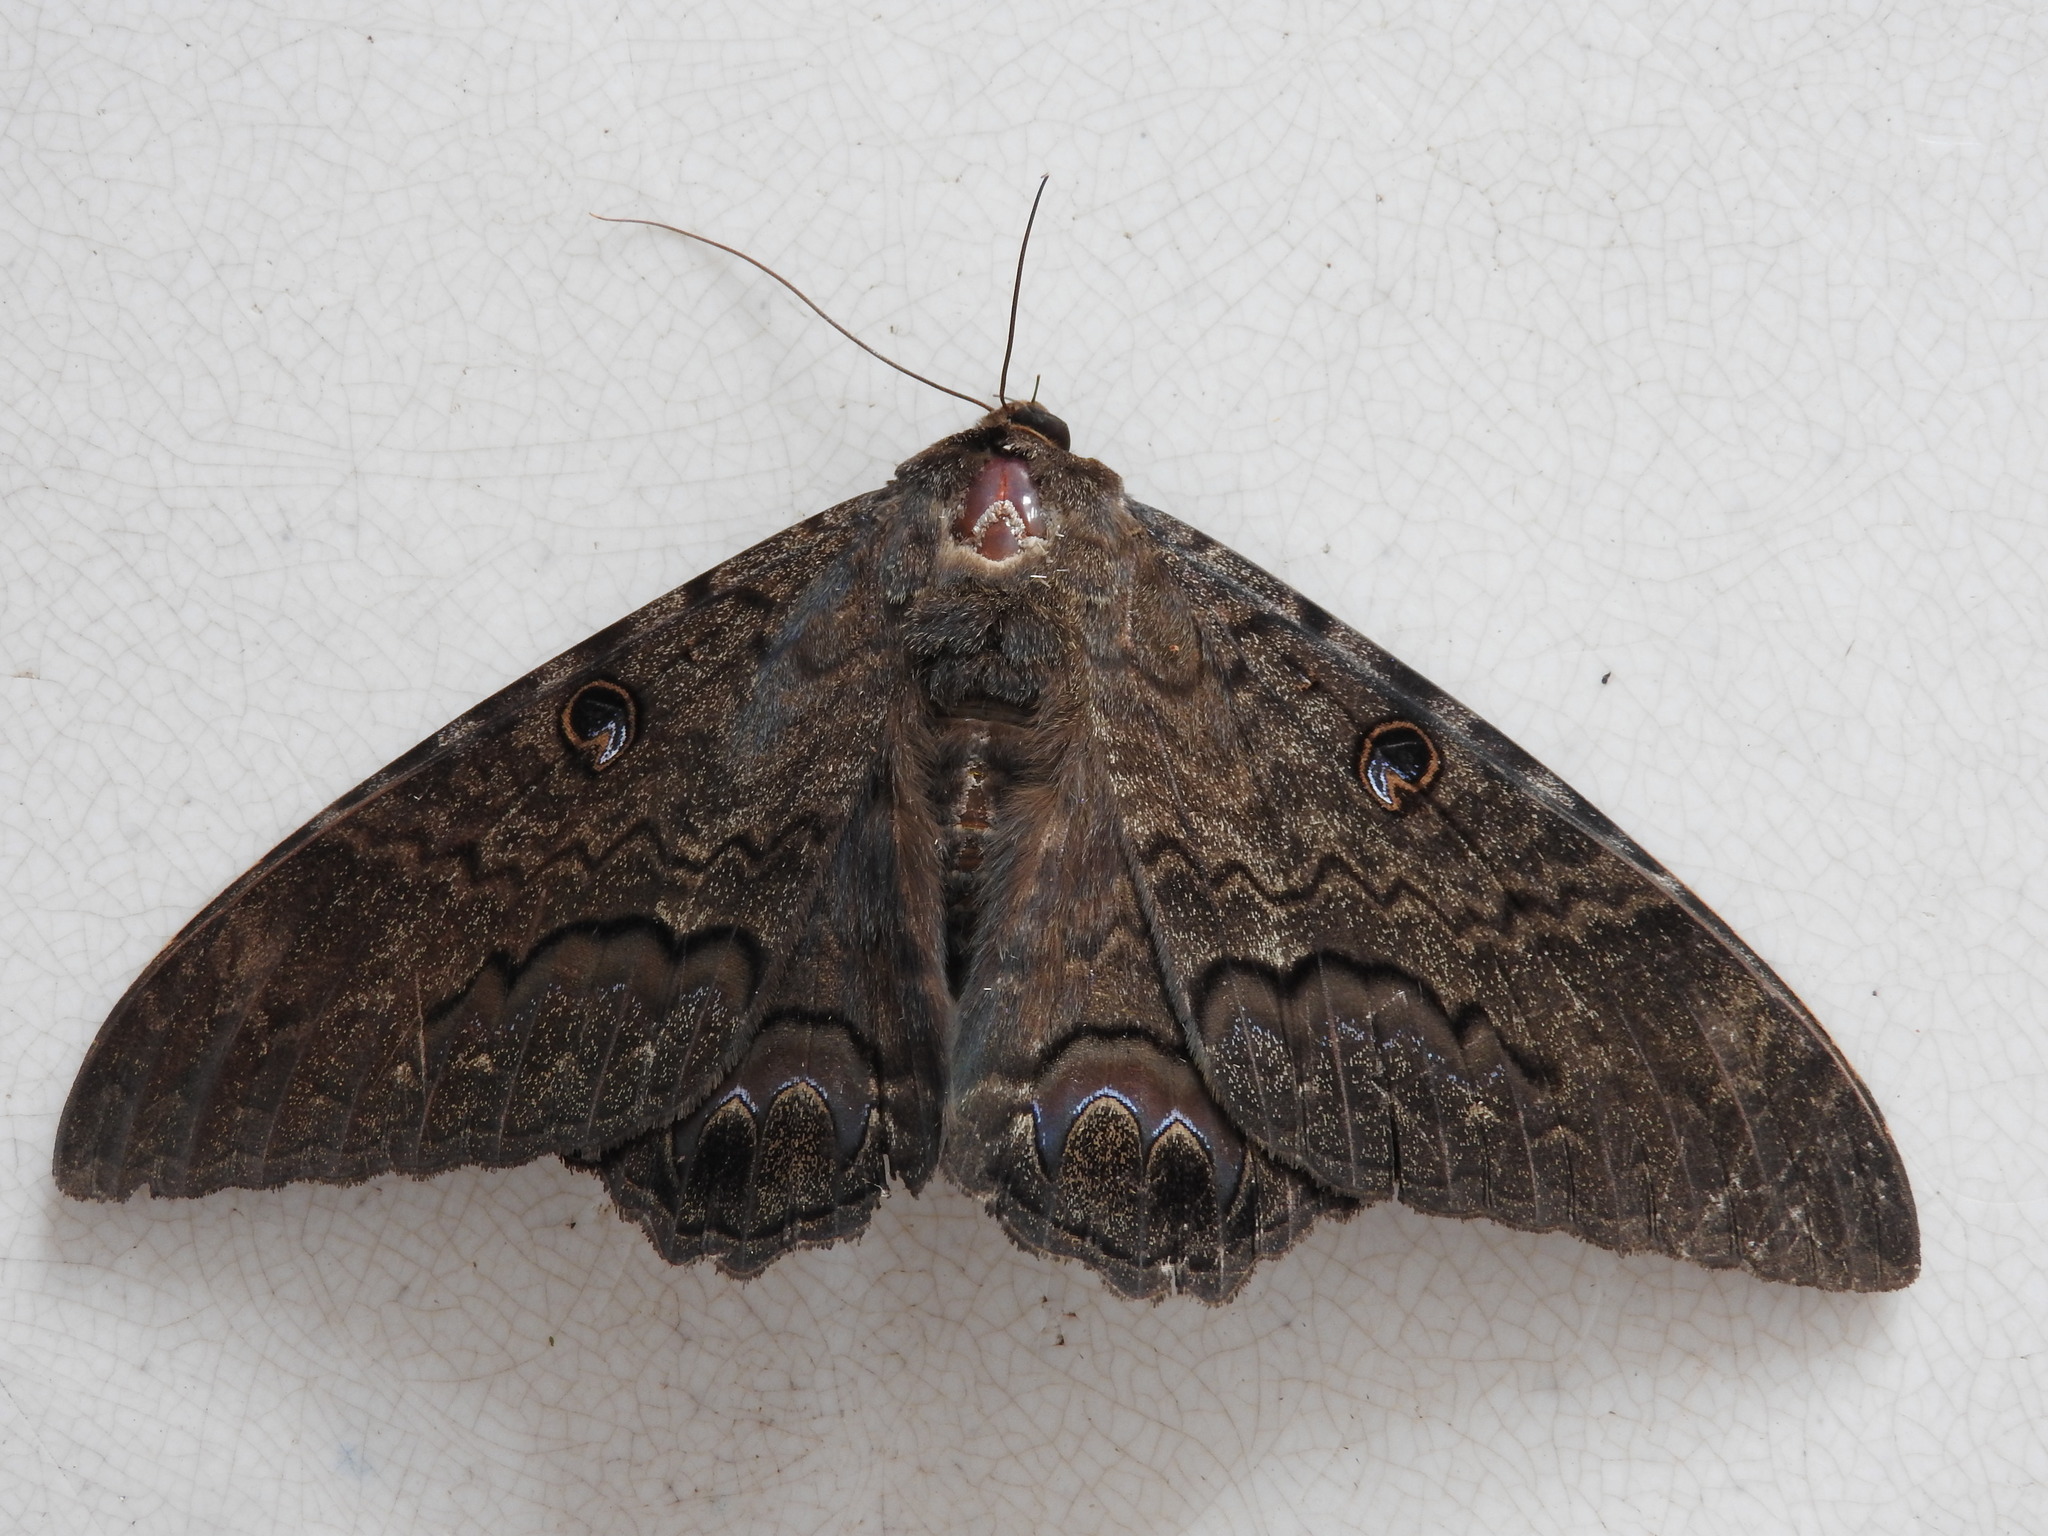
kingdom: Animalia
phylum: Arthropoda
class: Insecta
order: Lepidoptera
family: Erebidae
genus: Ascalapha
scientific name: Ascalapha odorata
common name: Black witch
